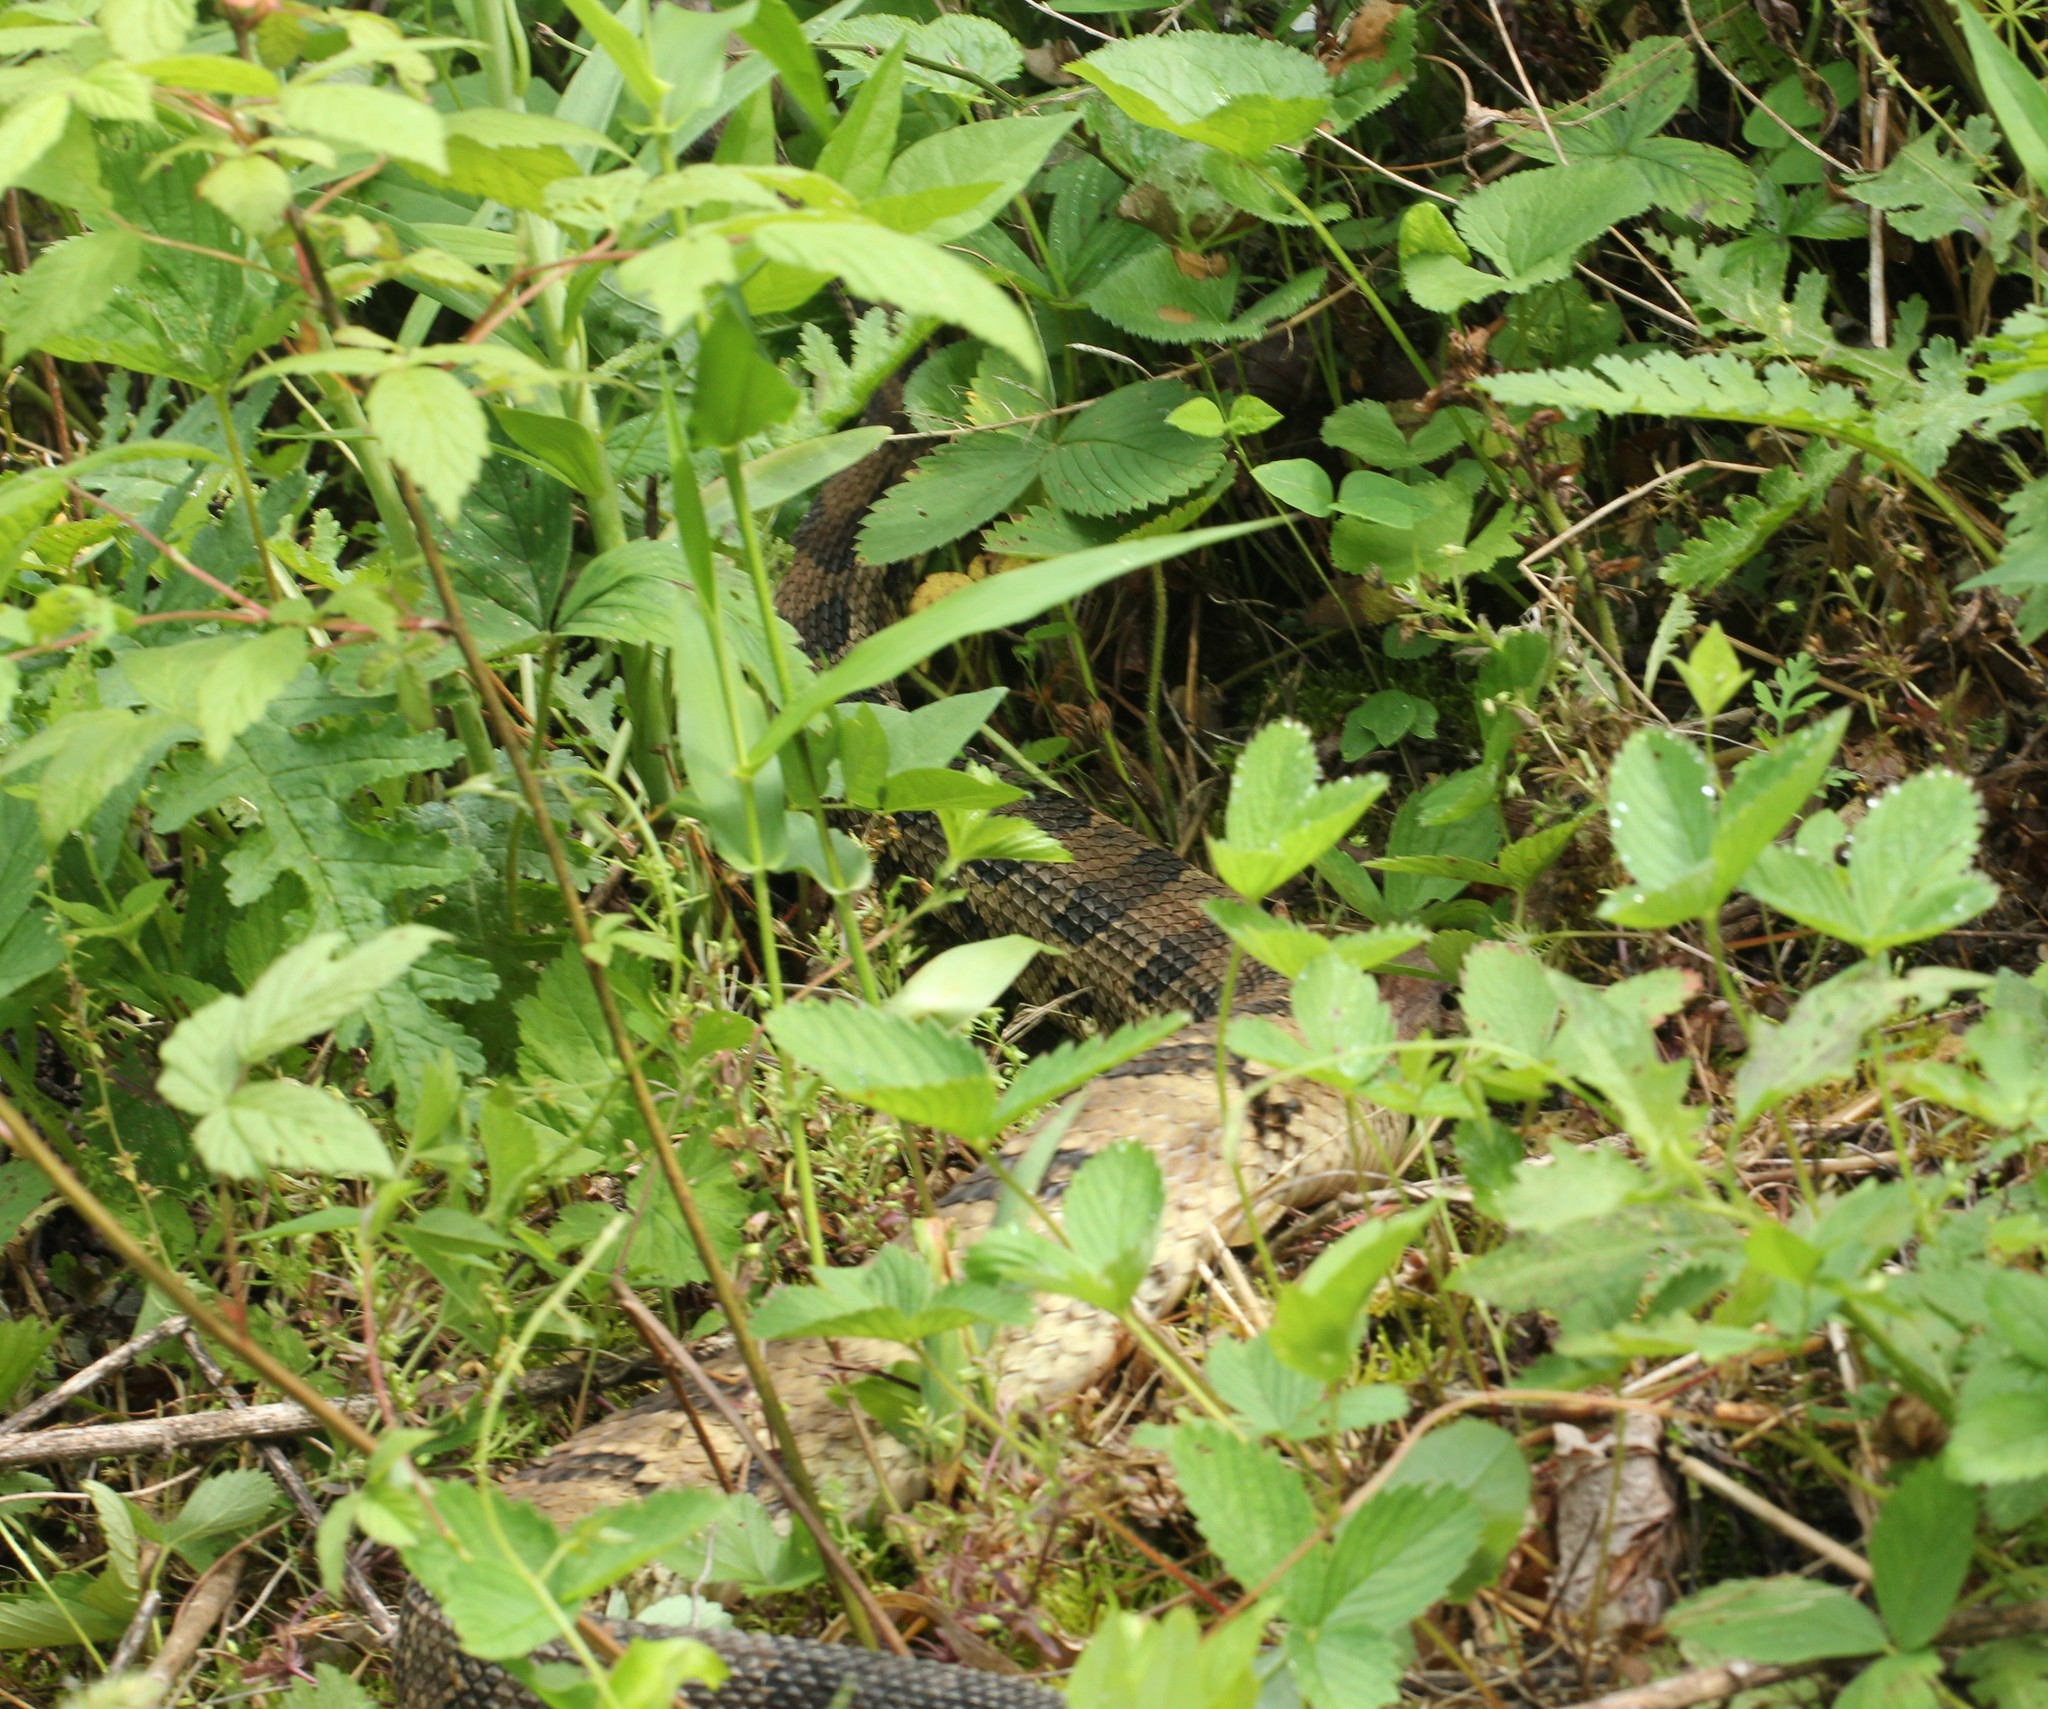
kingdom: Animalia
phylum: Chordata
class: Squamata
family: Viperidae
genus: Crotalus
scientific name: Crotalus horridus
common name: Timber rattlesnake
